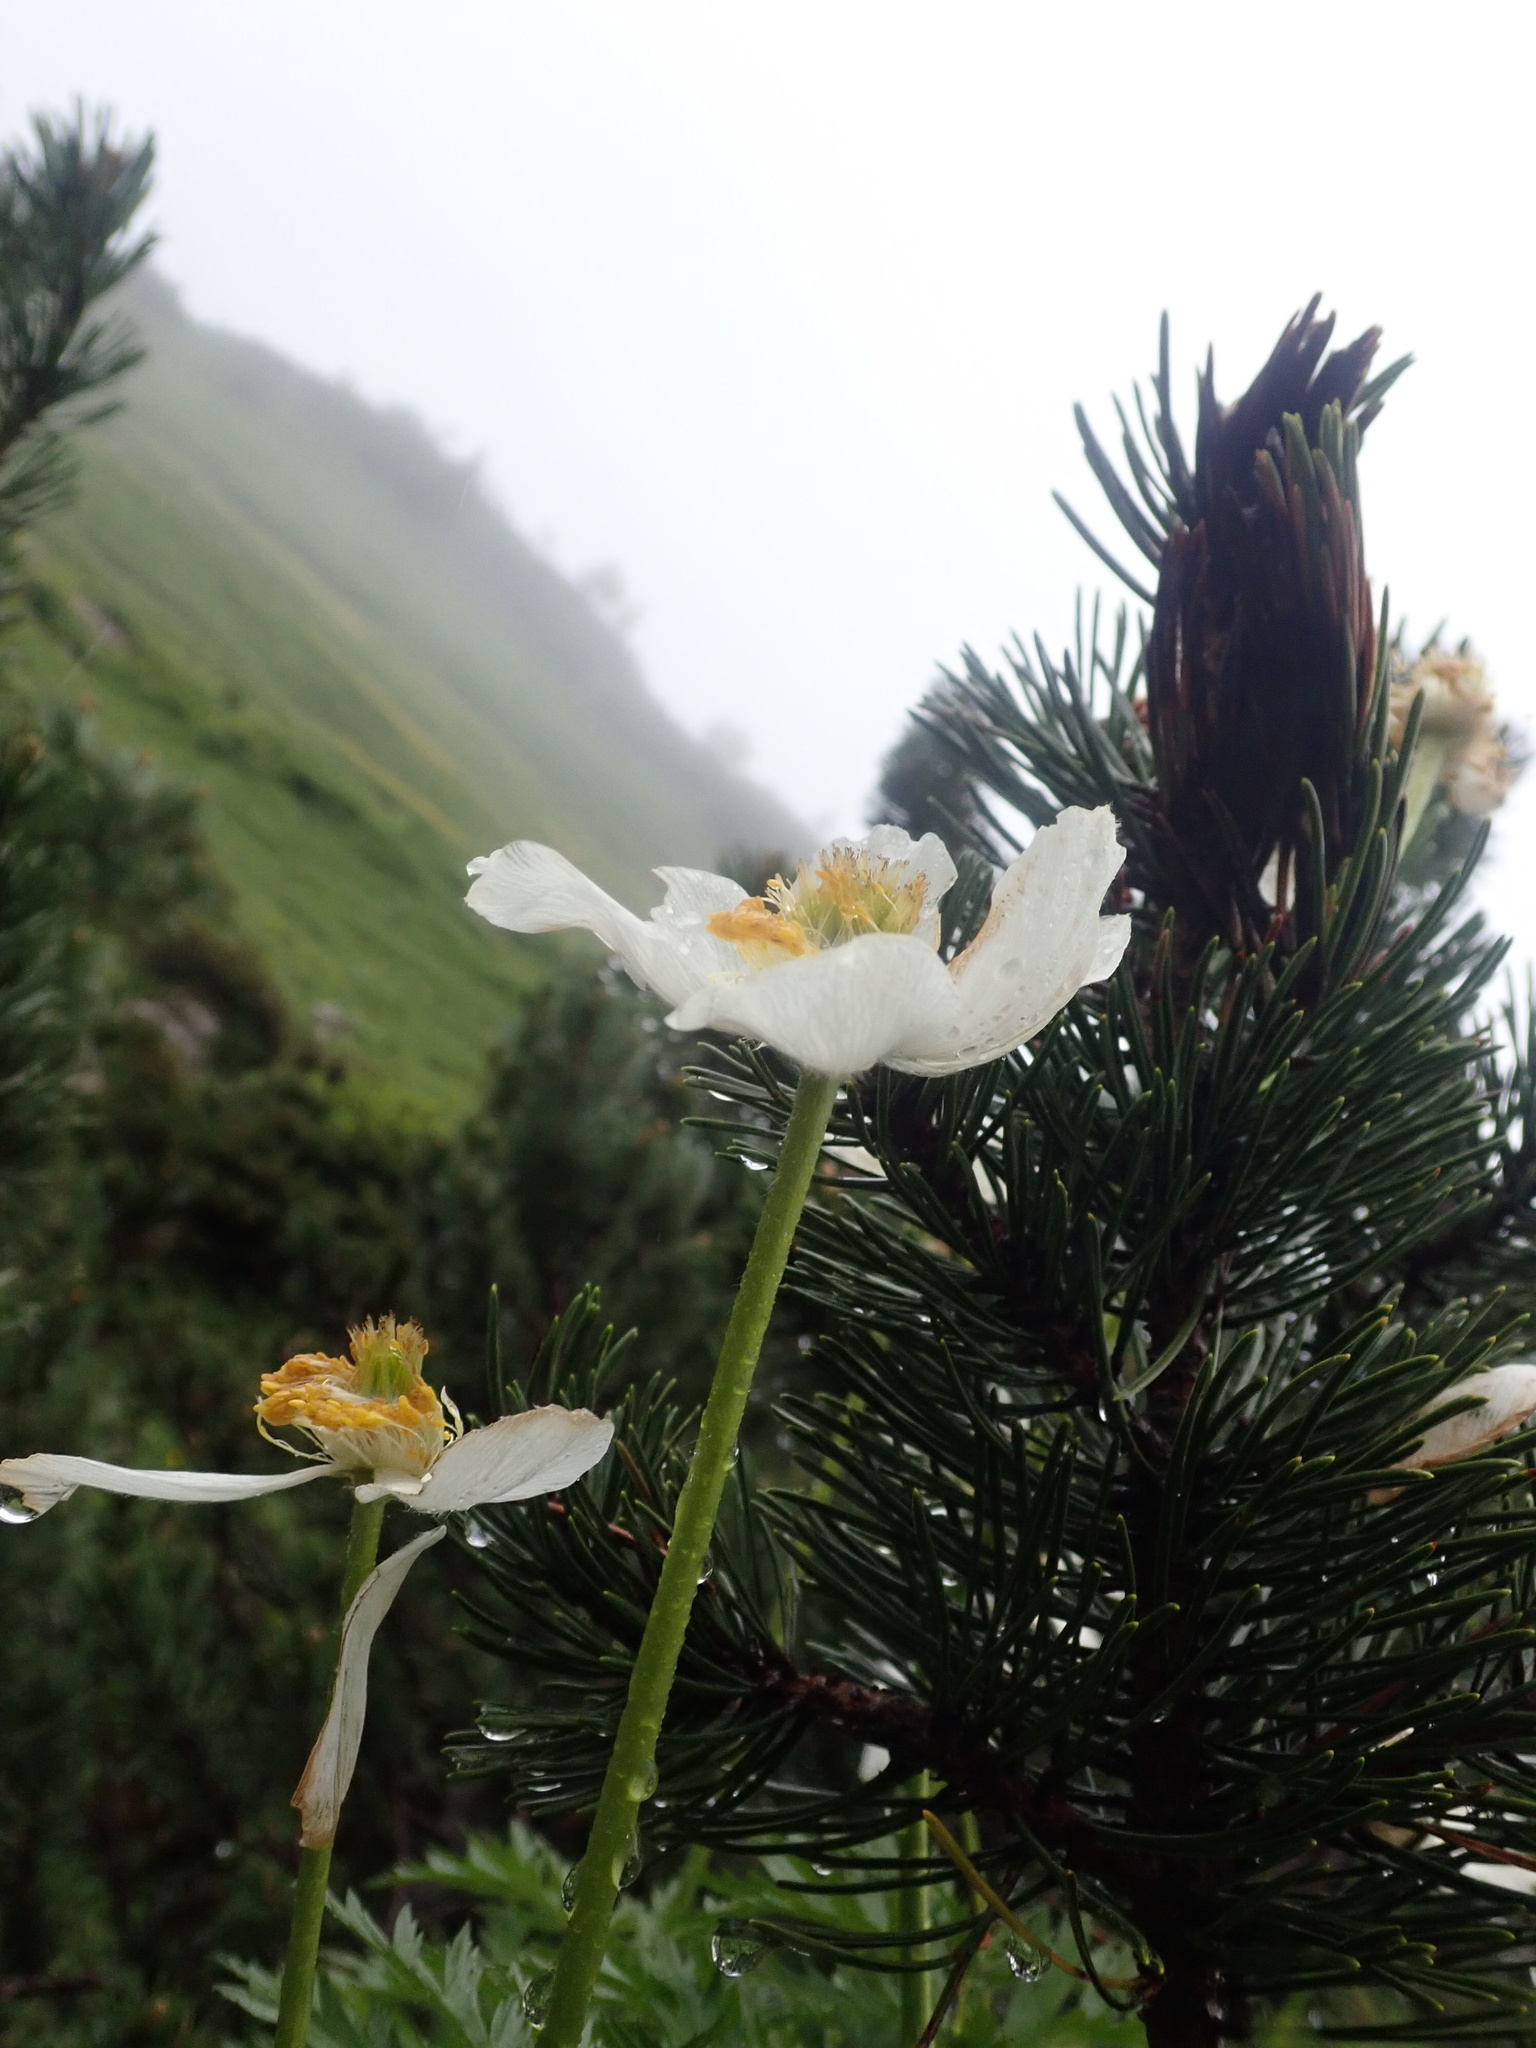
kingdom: Plantae
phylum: Tracheophyta
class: Magnoliopsida
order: Ranunculales
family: Ranunculaceae
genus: Pulsatilla
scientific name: Pulsatilla alpina
